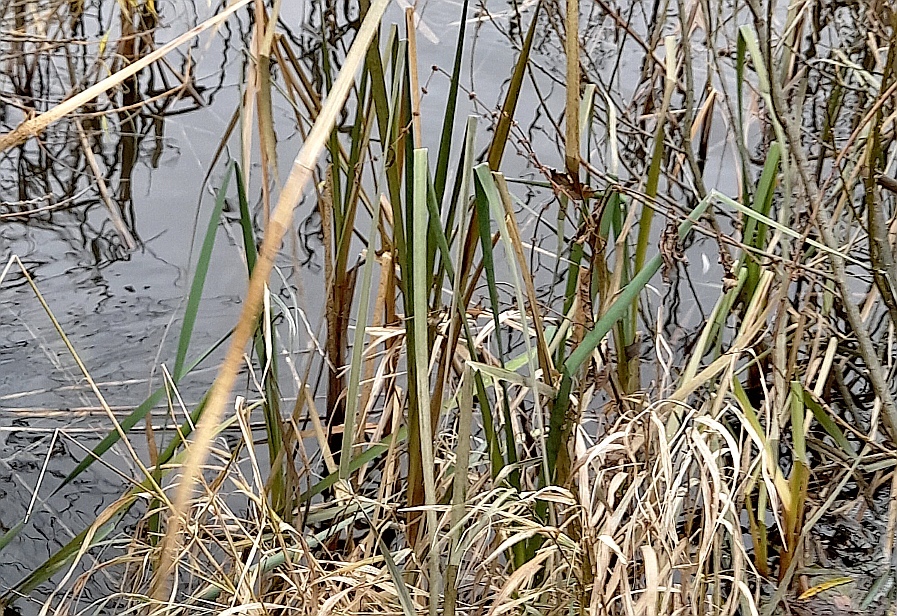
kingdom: Plantae
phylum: Tracheophyta
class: Liliopsida
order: Poales
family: Typhaceae
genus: Typha
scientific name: Typha latifolia
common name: Broadleaf cattail
